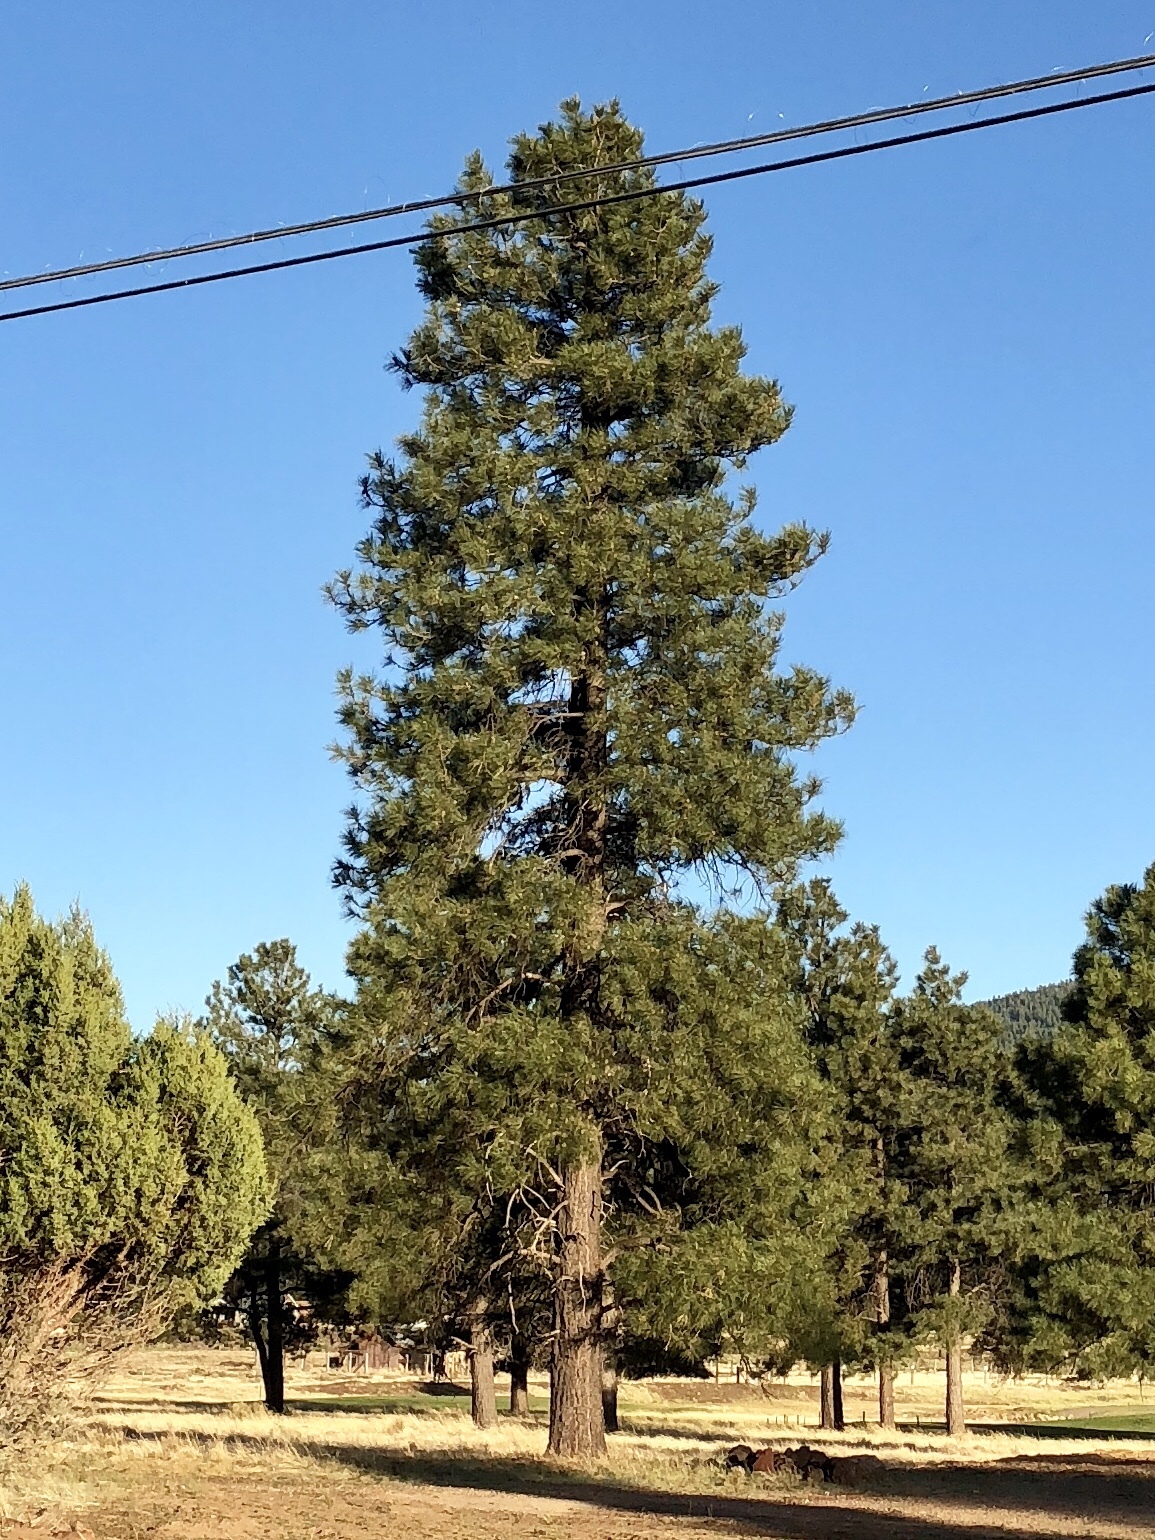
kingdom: Plantae
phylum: Tracheophyta
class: Pinopsida
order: Pinales
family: Pinaceae
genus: Pinus
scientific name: Pinus ponderosa
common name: Western yellow-pine
